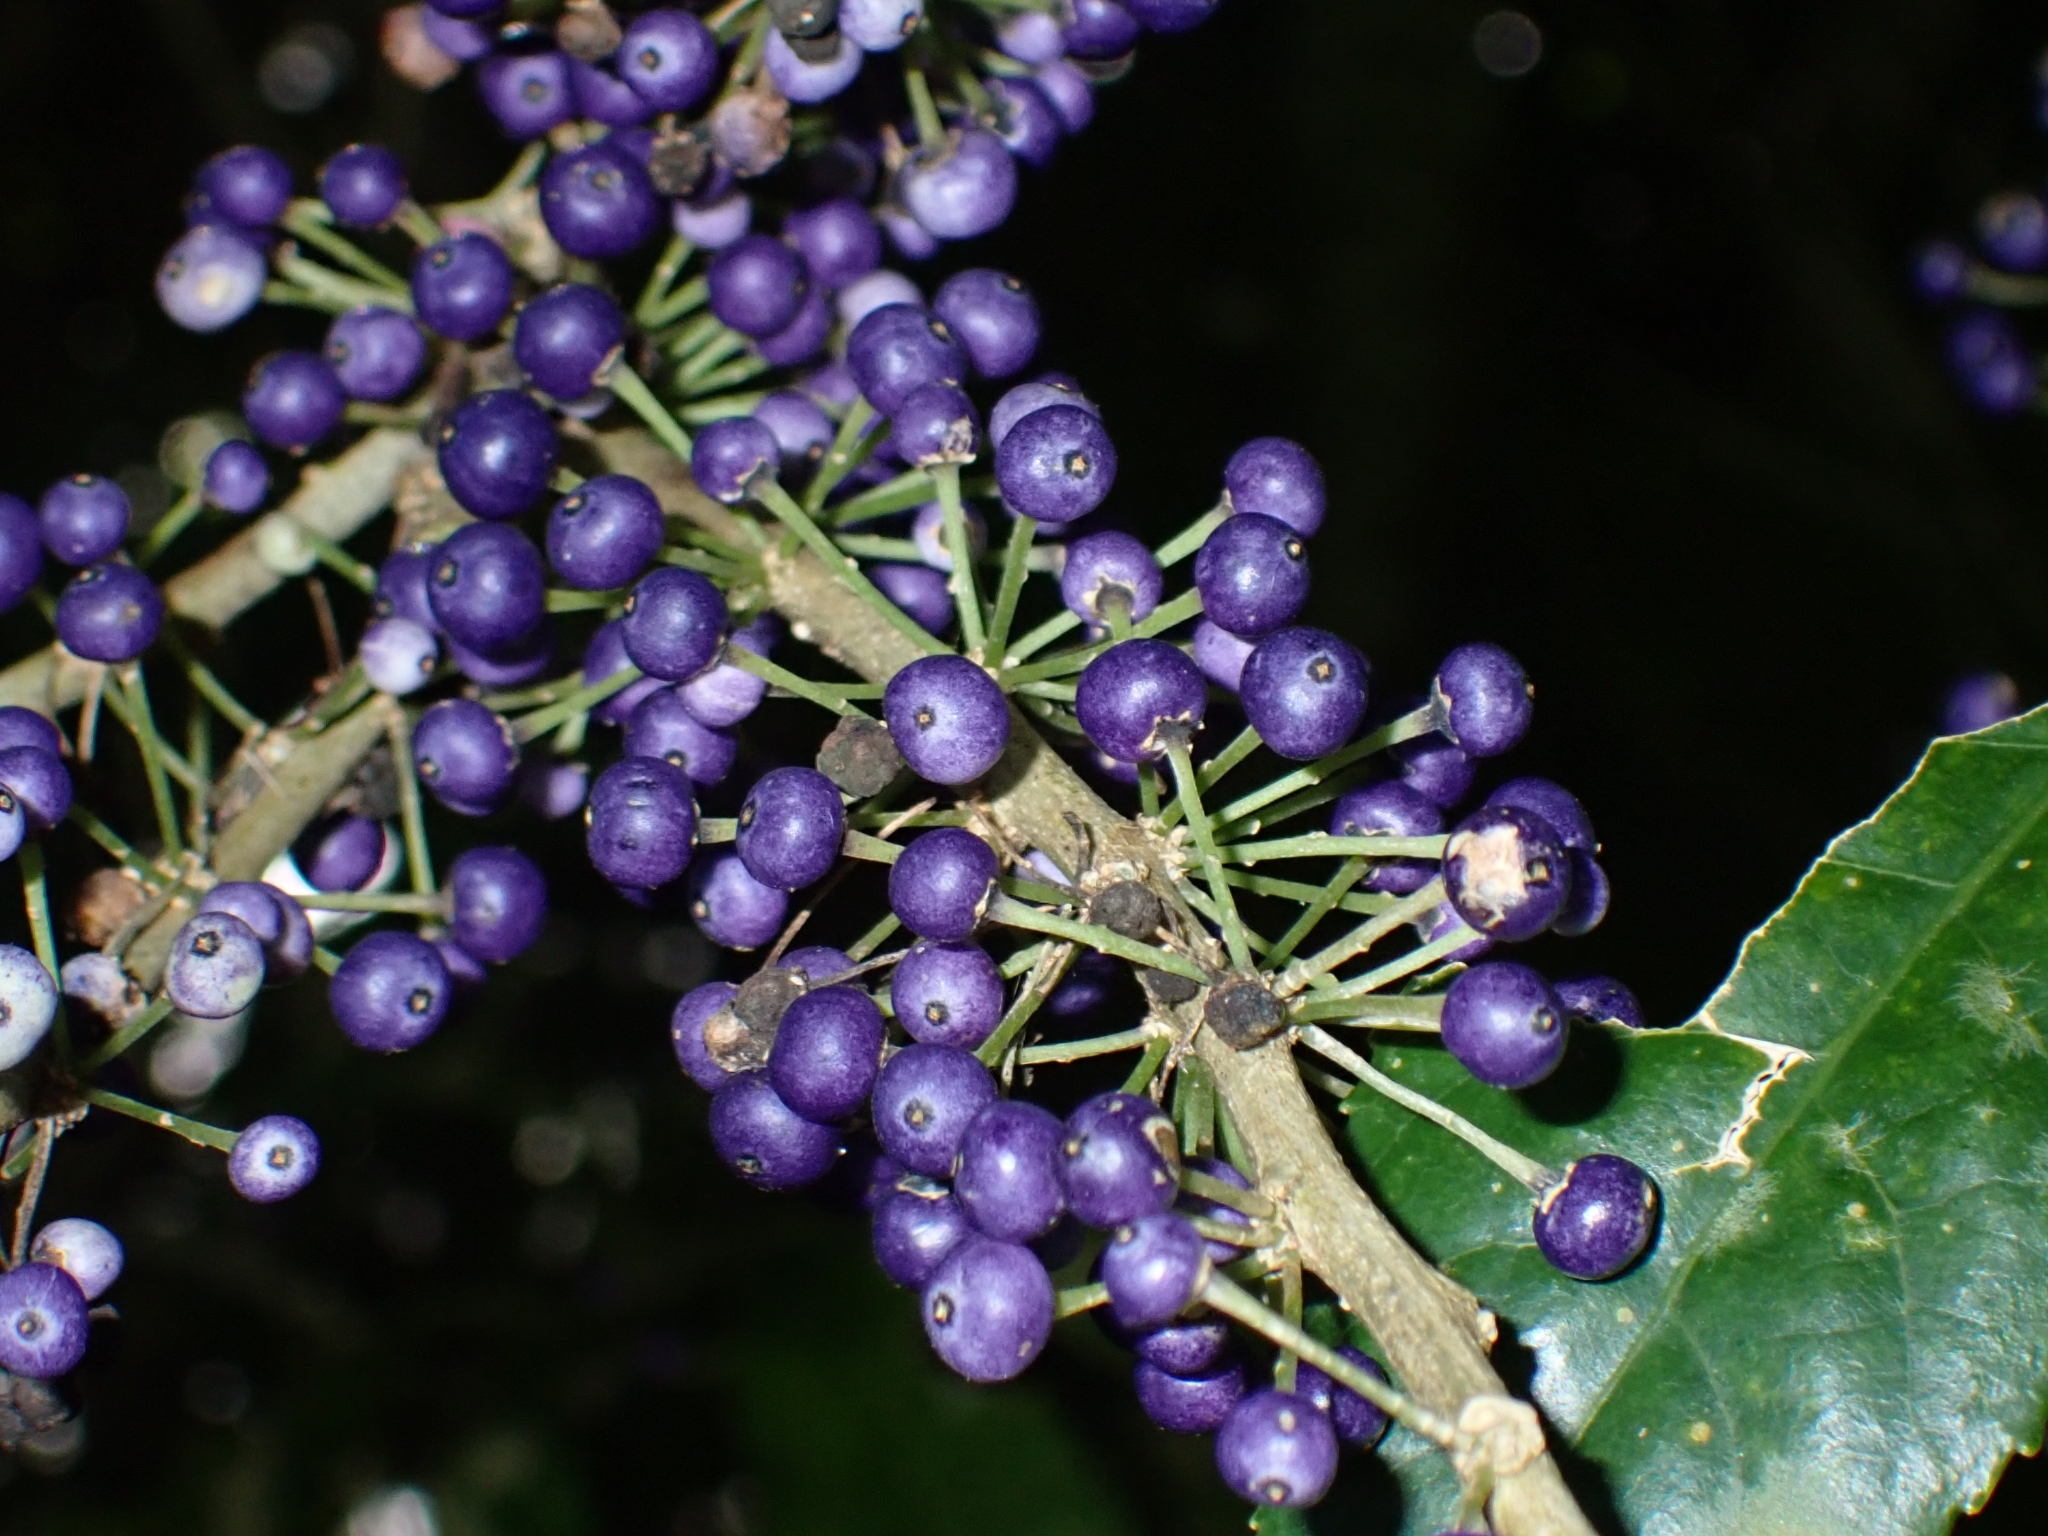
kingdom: Plantae
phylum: Tracheophyta
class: Magnoliopsida
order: Malpighiales
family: Violaceae
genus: Melicytus
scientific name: Melicytus ramiflorus
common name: Mahoe
